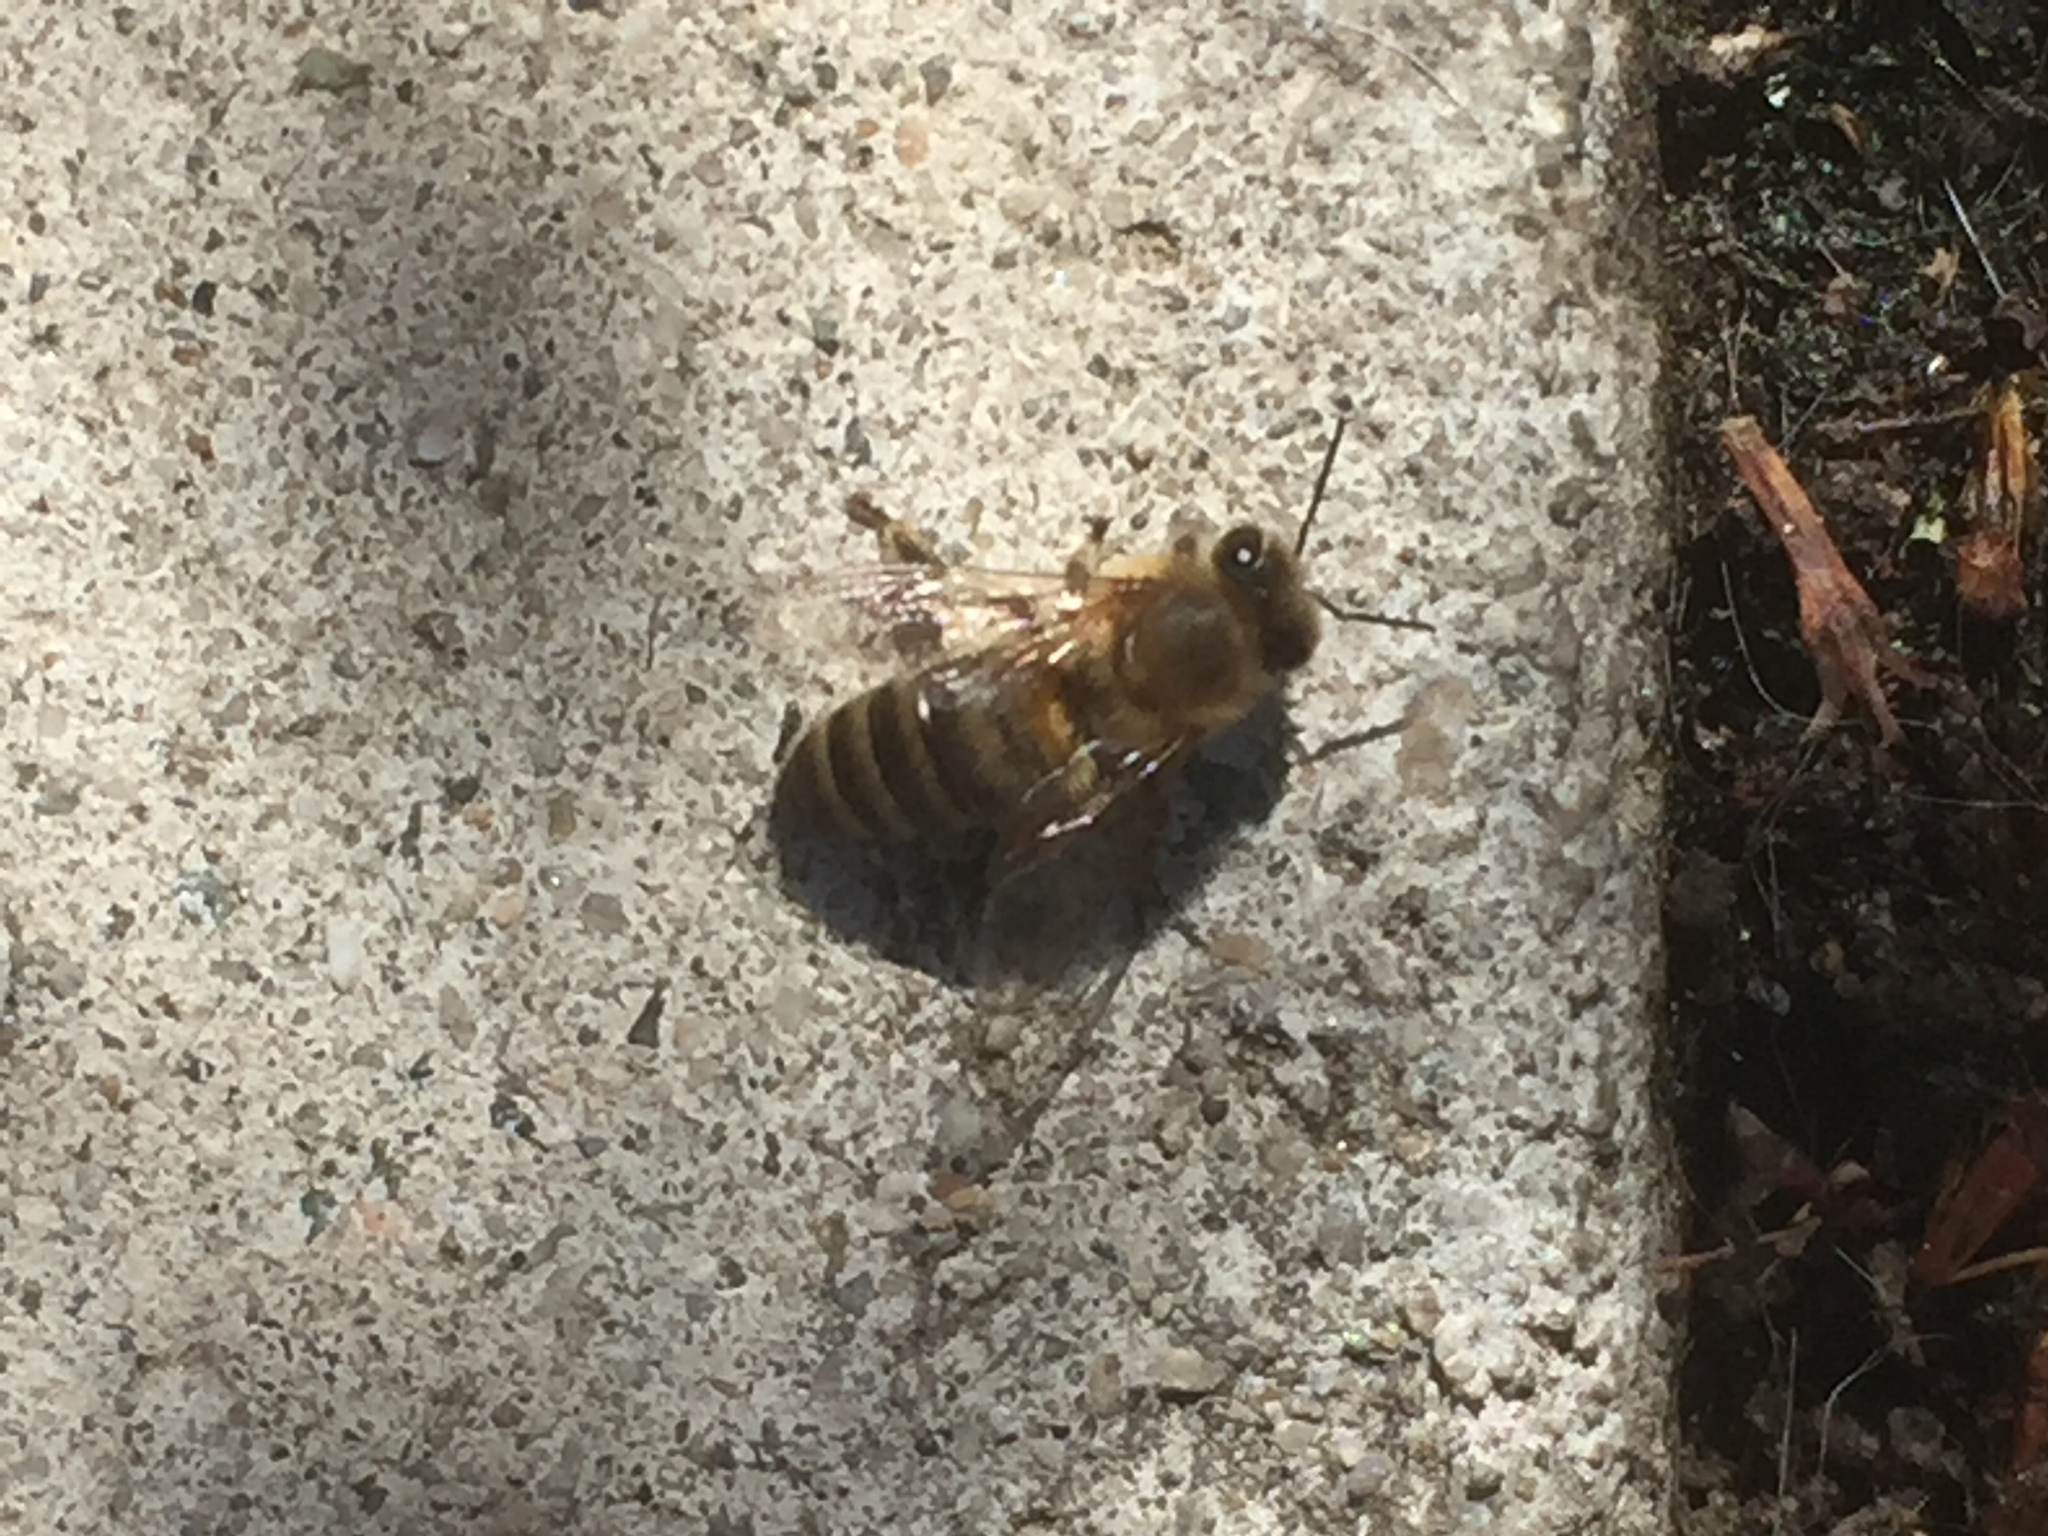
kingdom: Animalia
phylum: Arthropoda
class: Insecta
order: Hymenoptera
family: Apidae
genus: Apis
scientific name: Apis mellifera
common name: Honey bee
